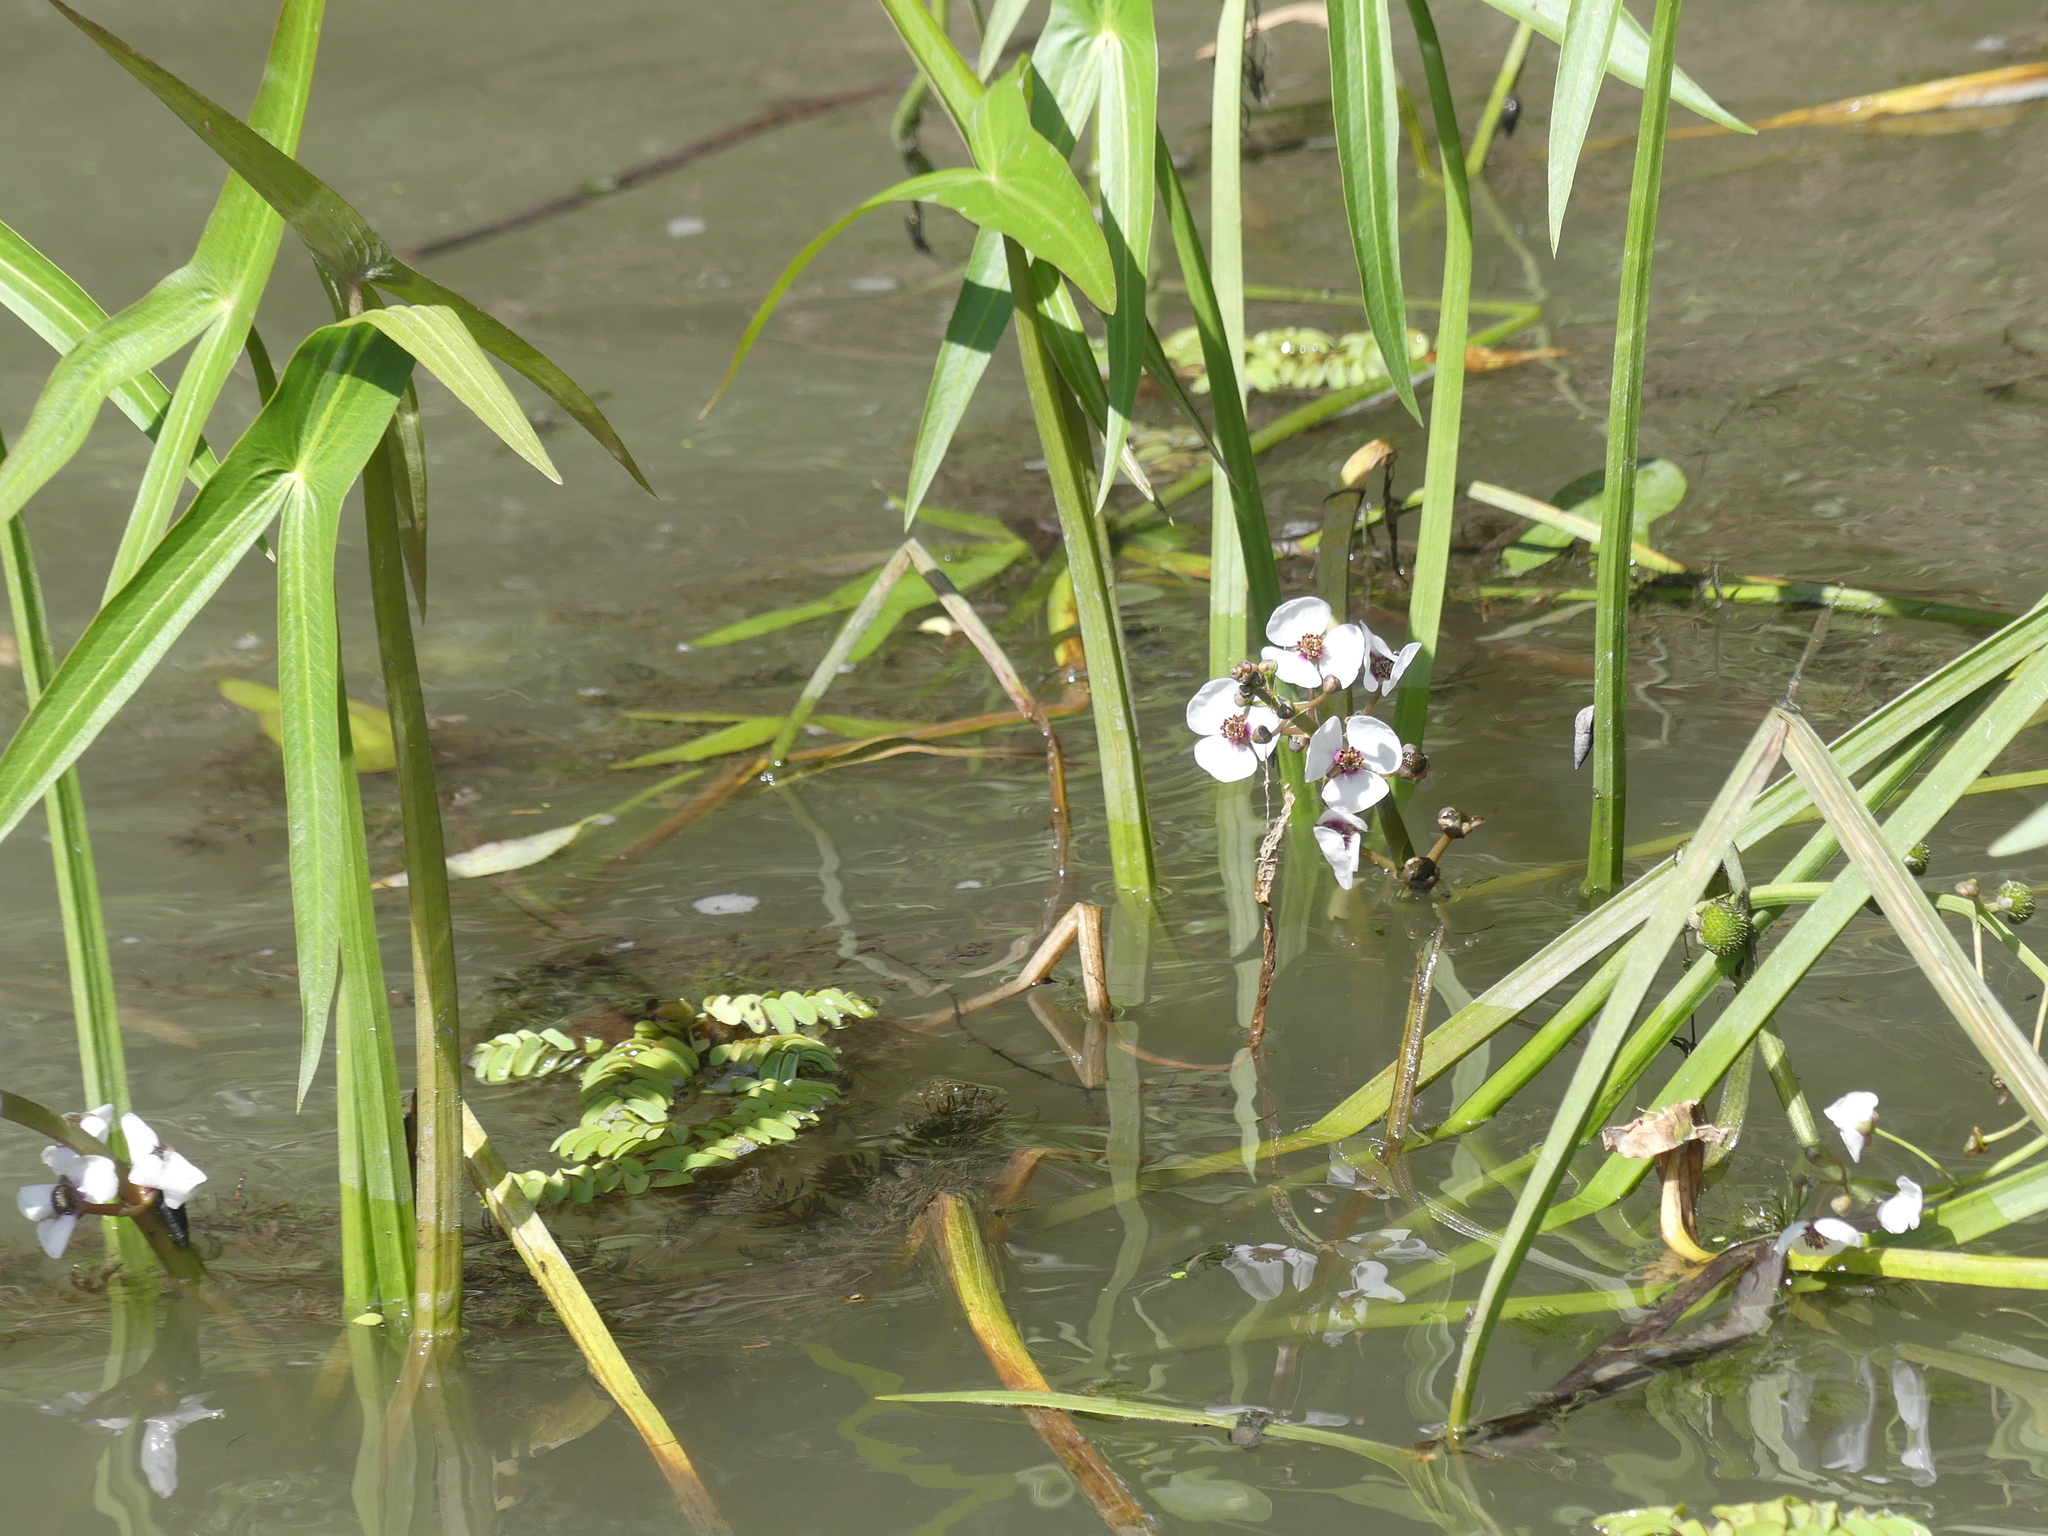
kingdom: Plantae
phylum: Tracheophyta
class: Liliopsida
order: Alismatales
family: Alismataceae
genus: Sagittaria
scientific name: Sagittaria sagittifolia
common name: Arrowhead
